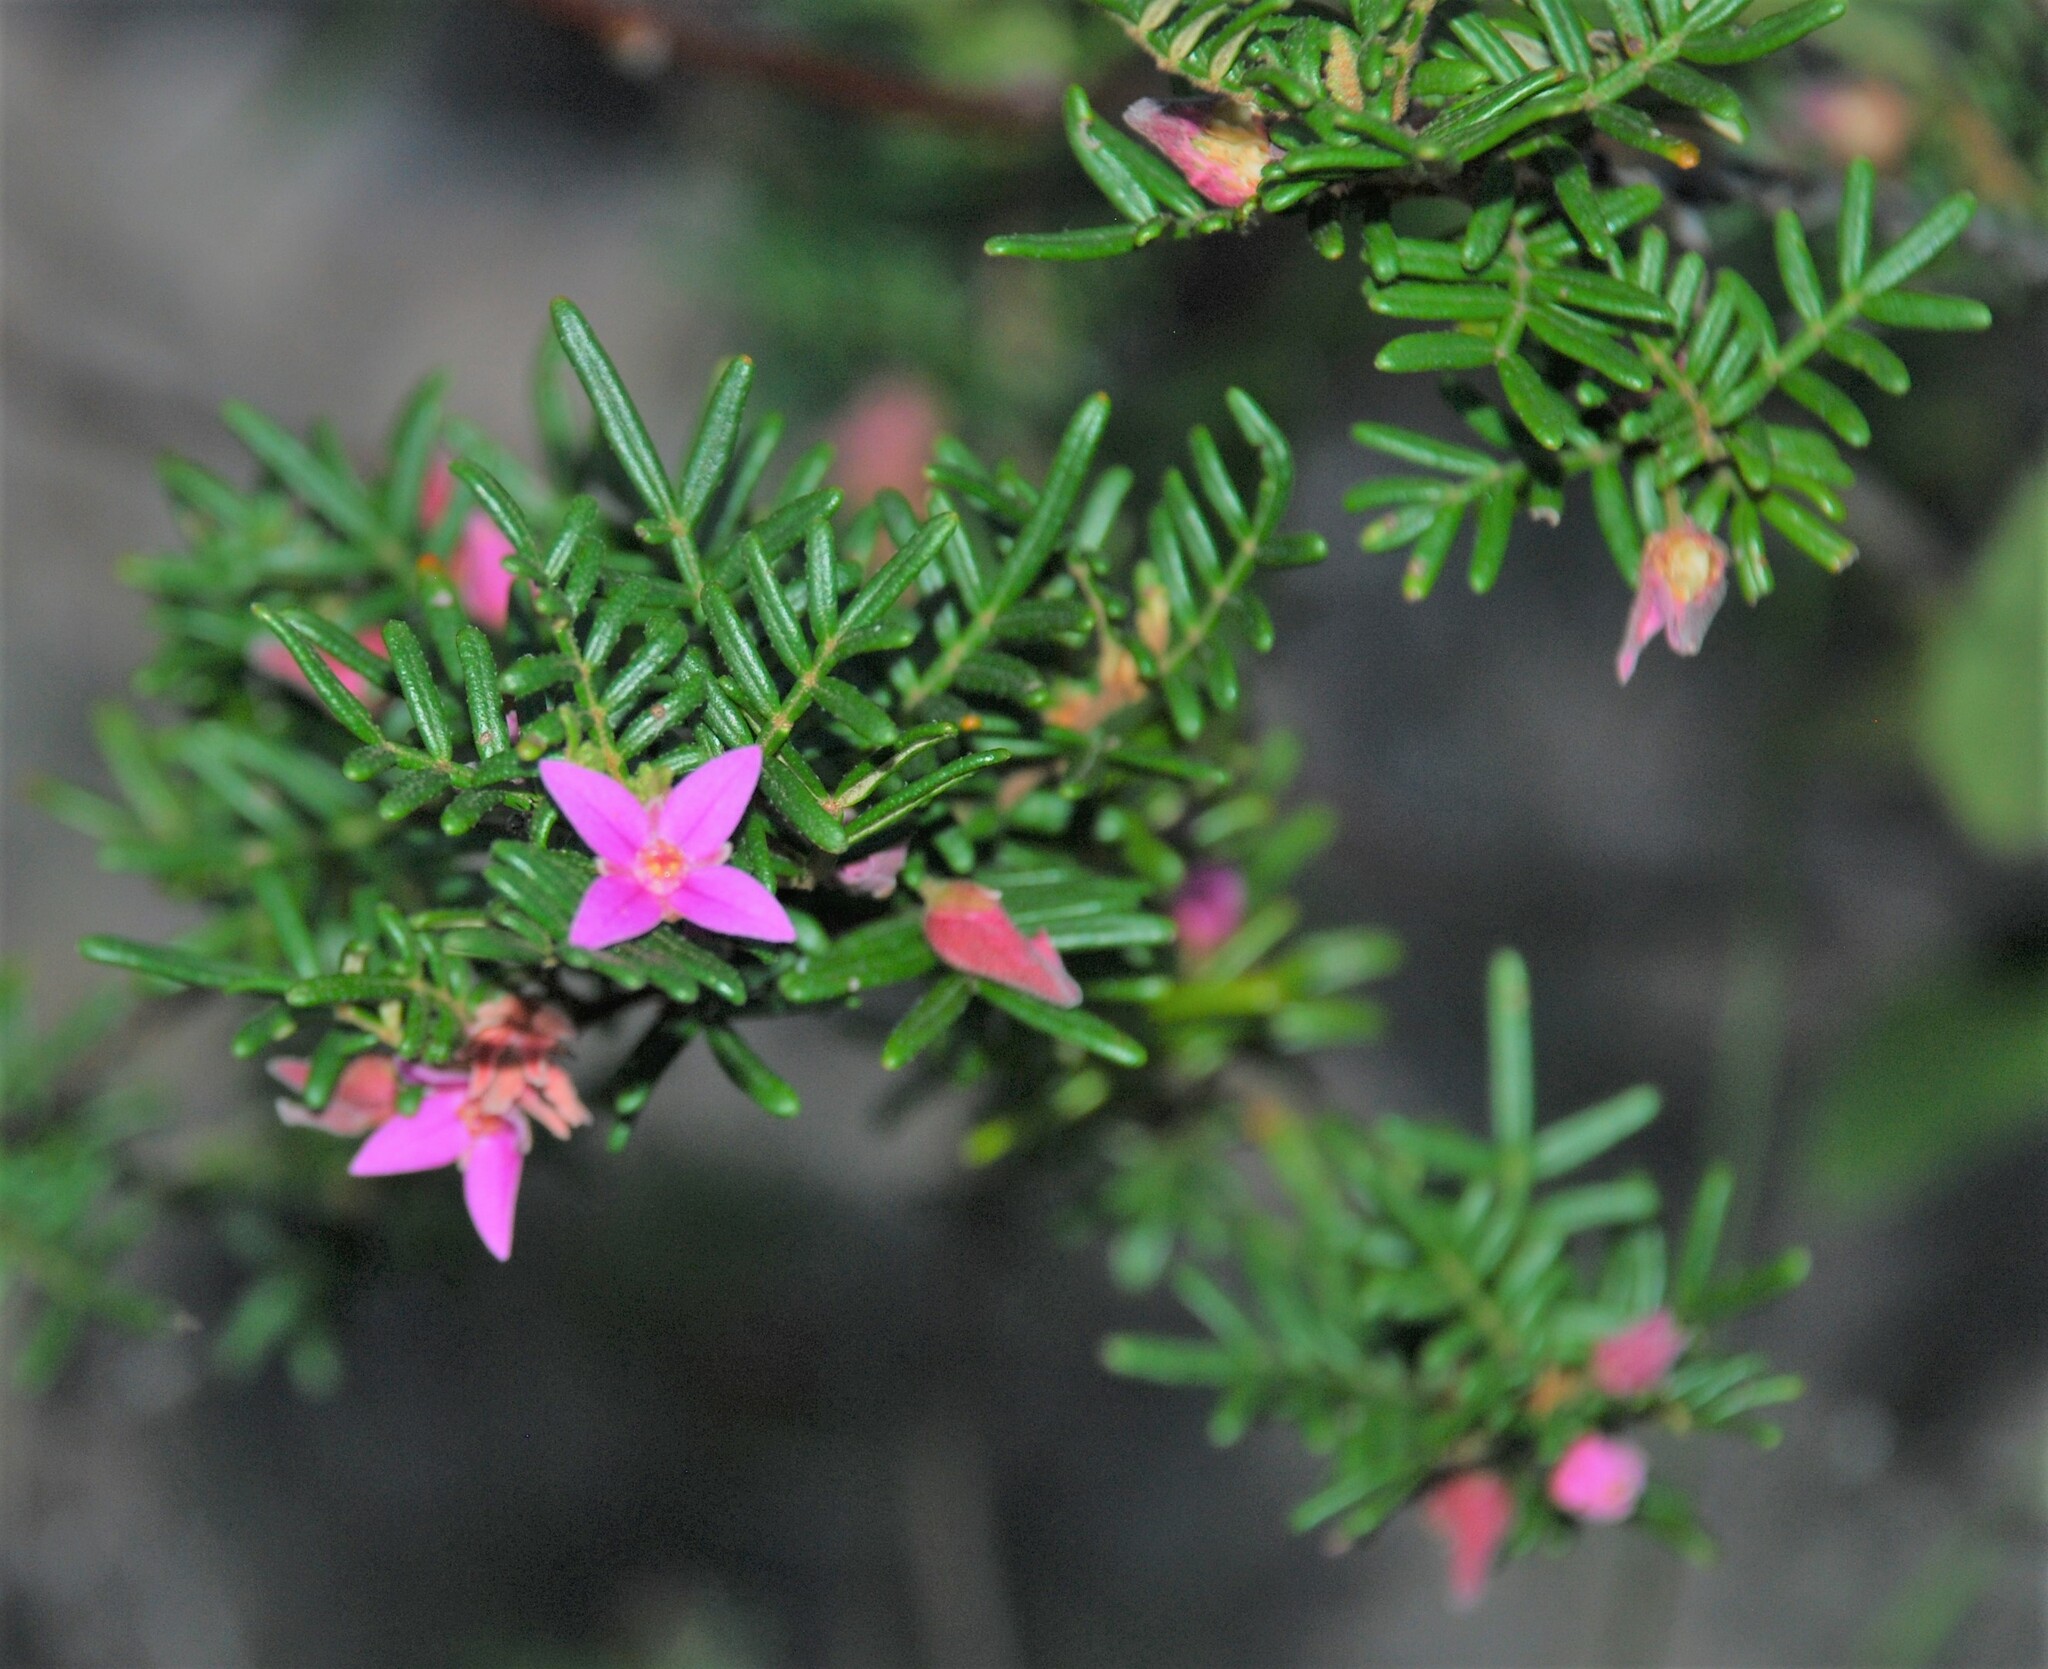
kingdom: Plantae
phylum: Tracheophyta
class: Magnoliopsida
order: Sapindales
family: Rutaceae
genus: Boronia
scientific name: Boronia amabilis
